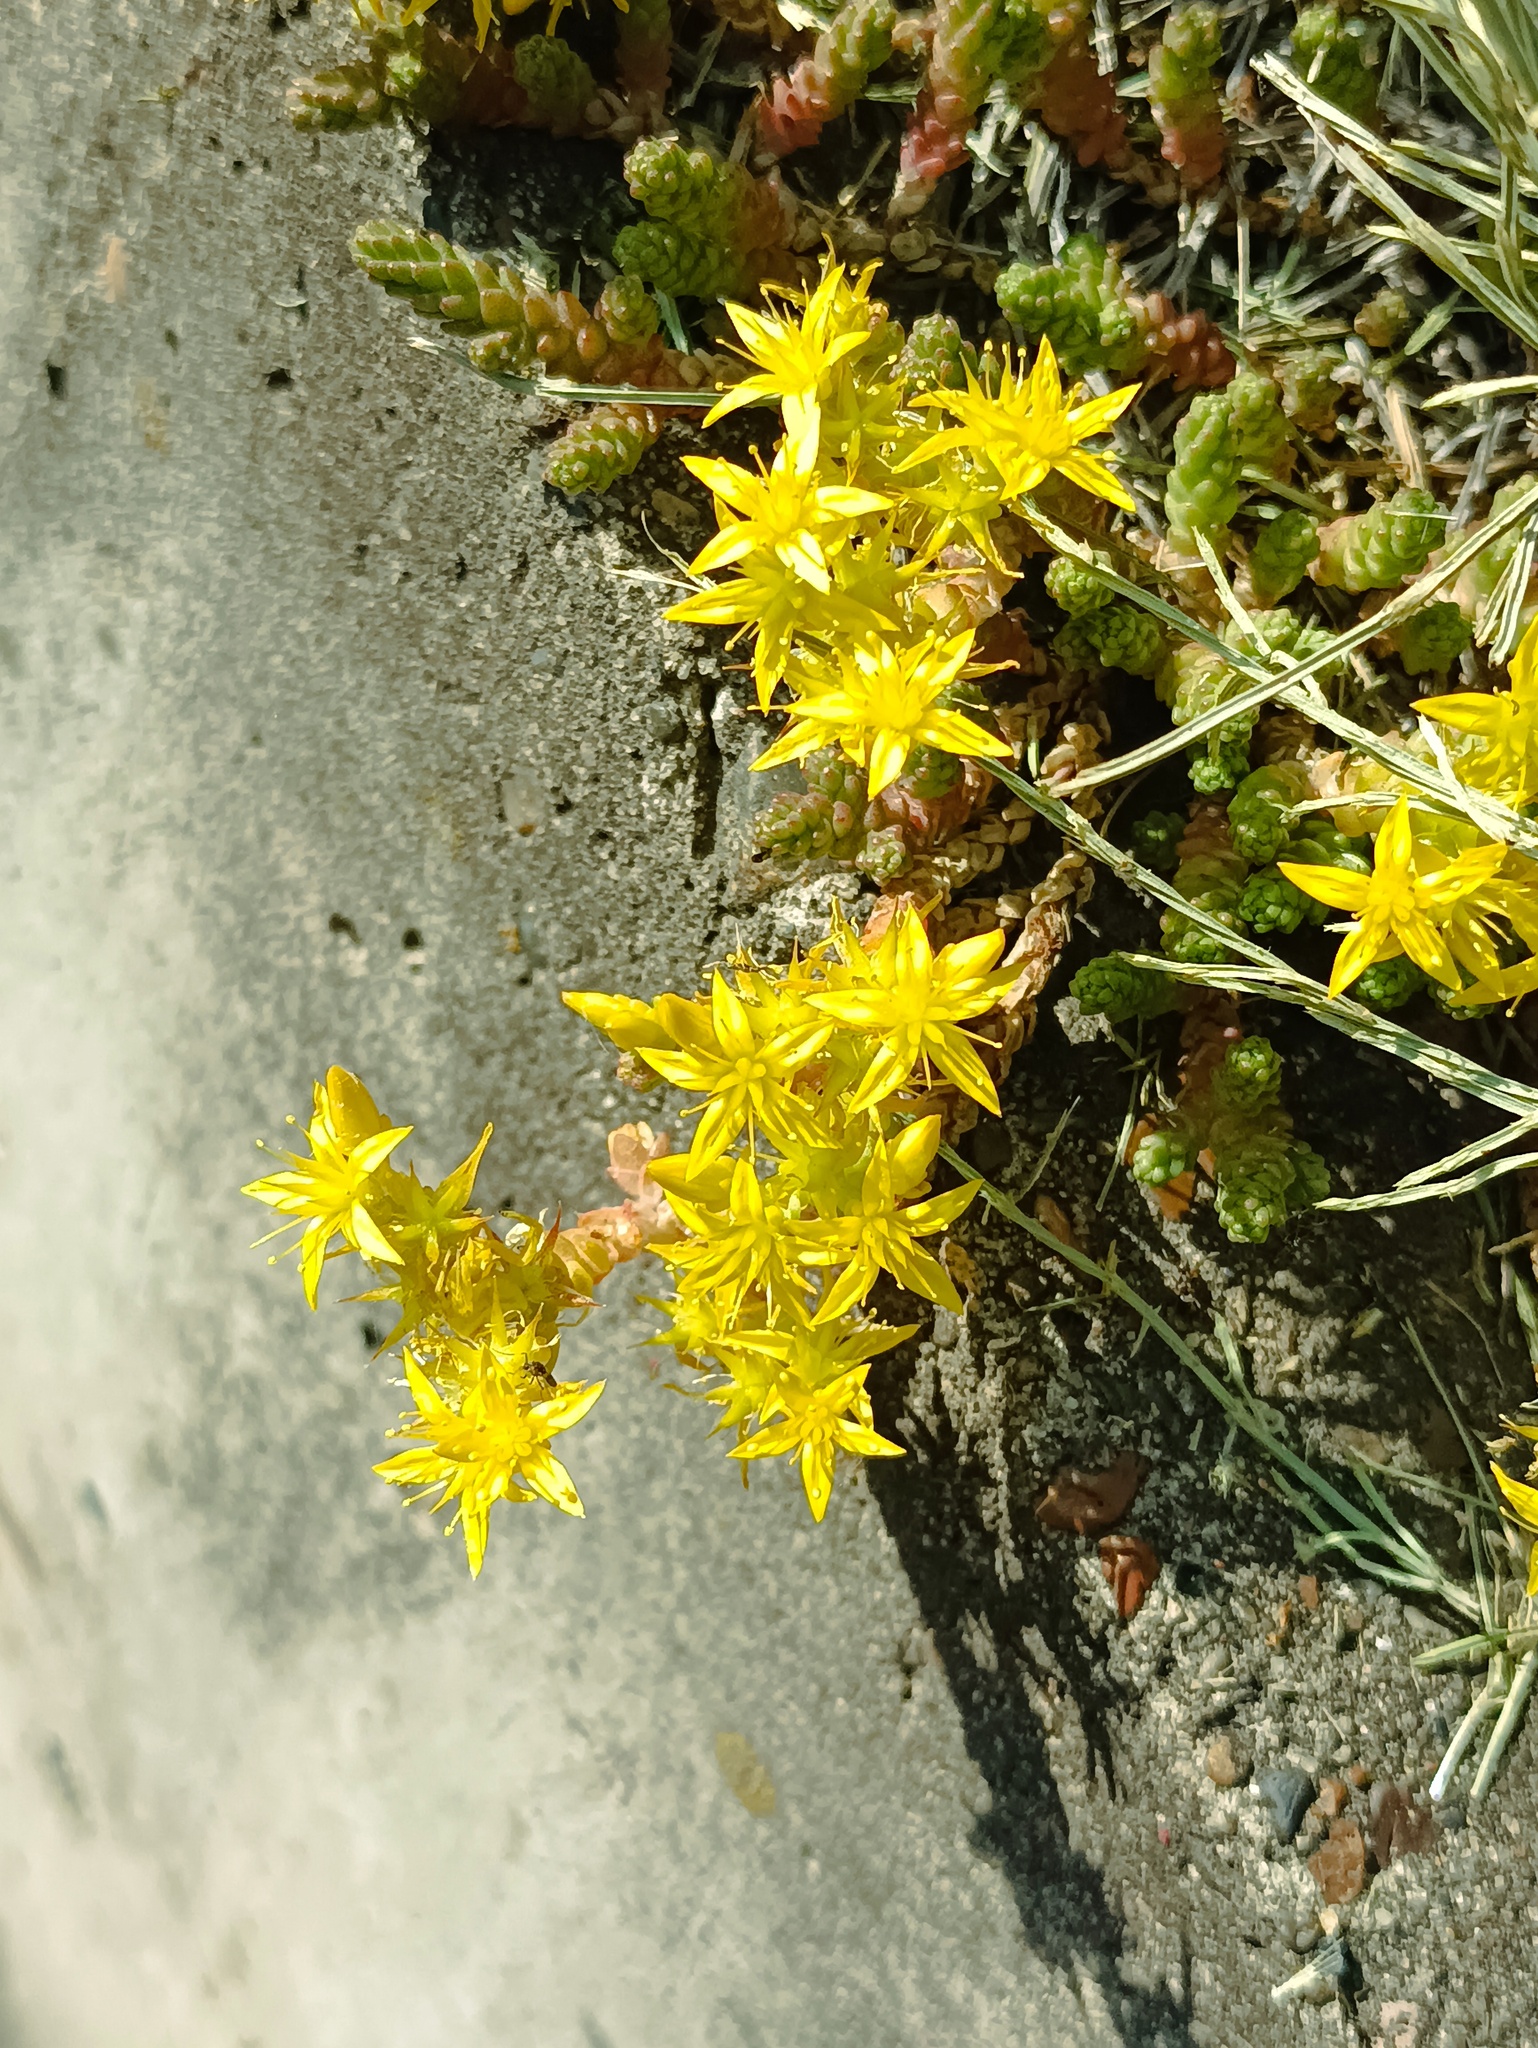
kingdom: Plantae
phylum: Tracheophyta
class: Magnoliopsida
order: Saxifragales
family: Crassulaceae
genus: Sedum
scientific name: Sedum acre
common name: Biting stonecrop
